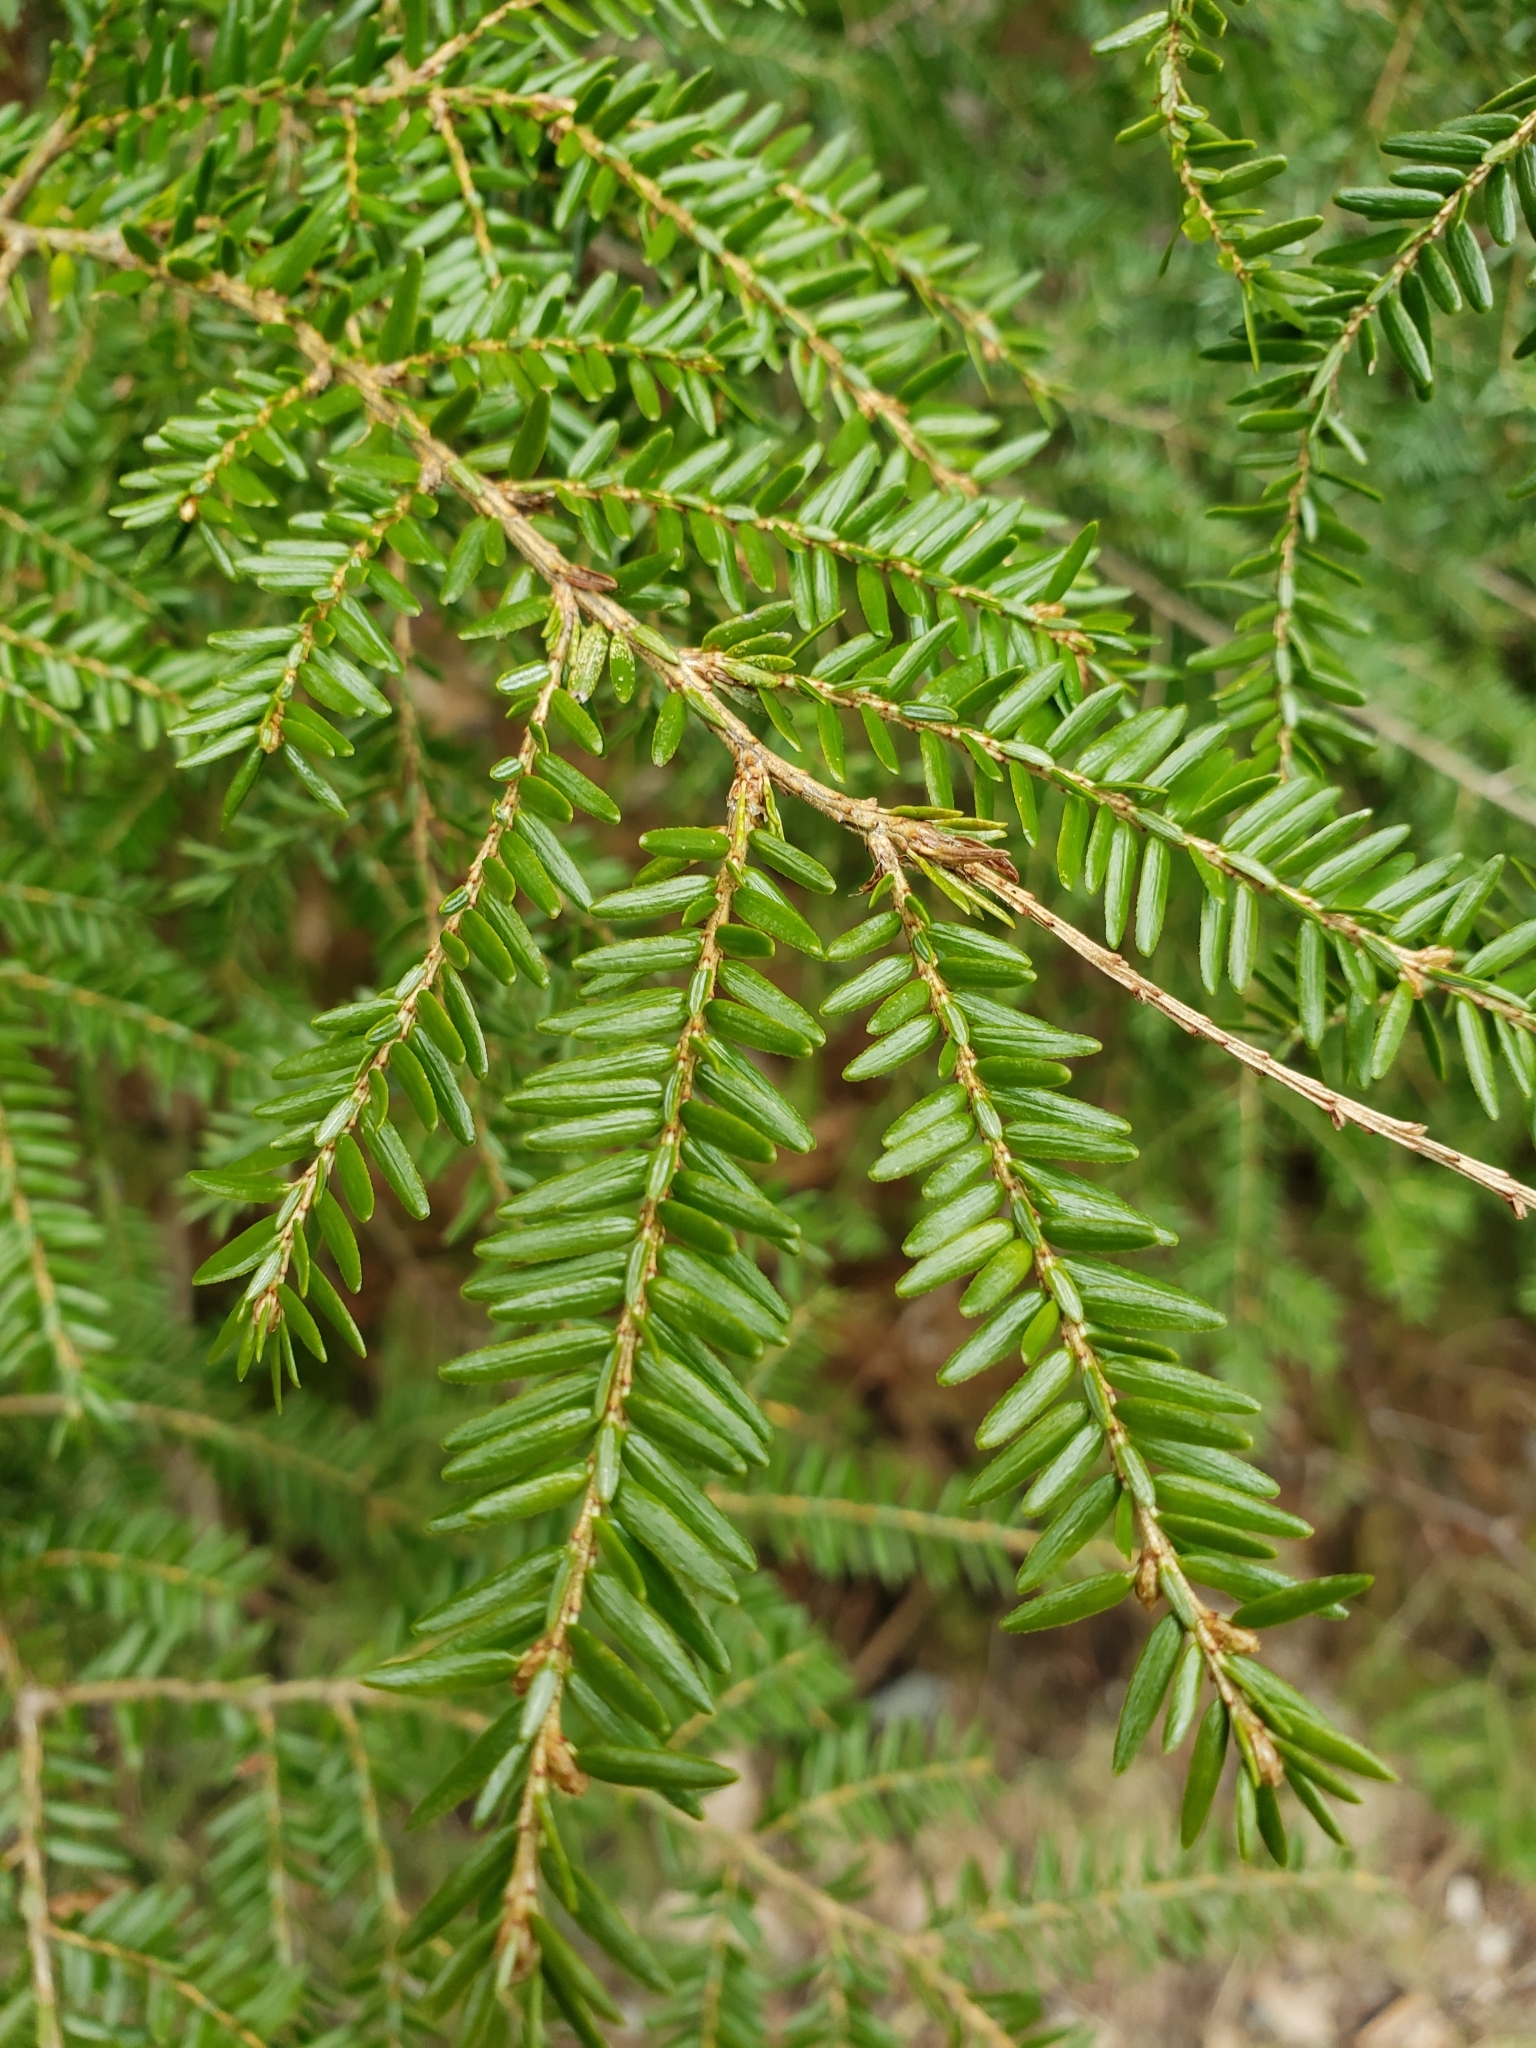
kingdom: Plantae
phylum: Tracheophyta
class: Pinopsida
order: Pinales
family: Pinaceae
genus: Tsuga
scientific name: Tsuga canadensis
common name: Eastern hemlock
